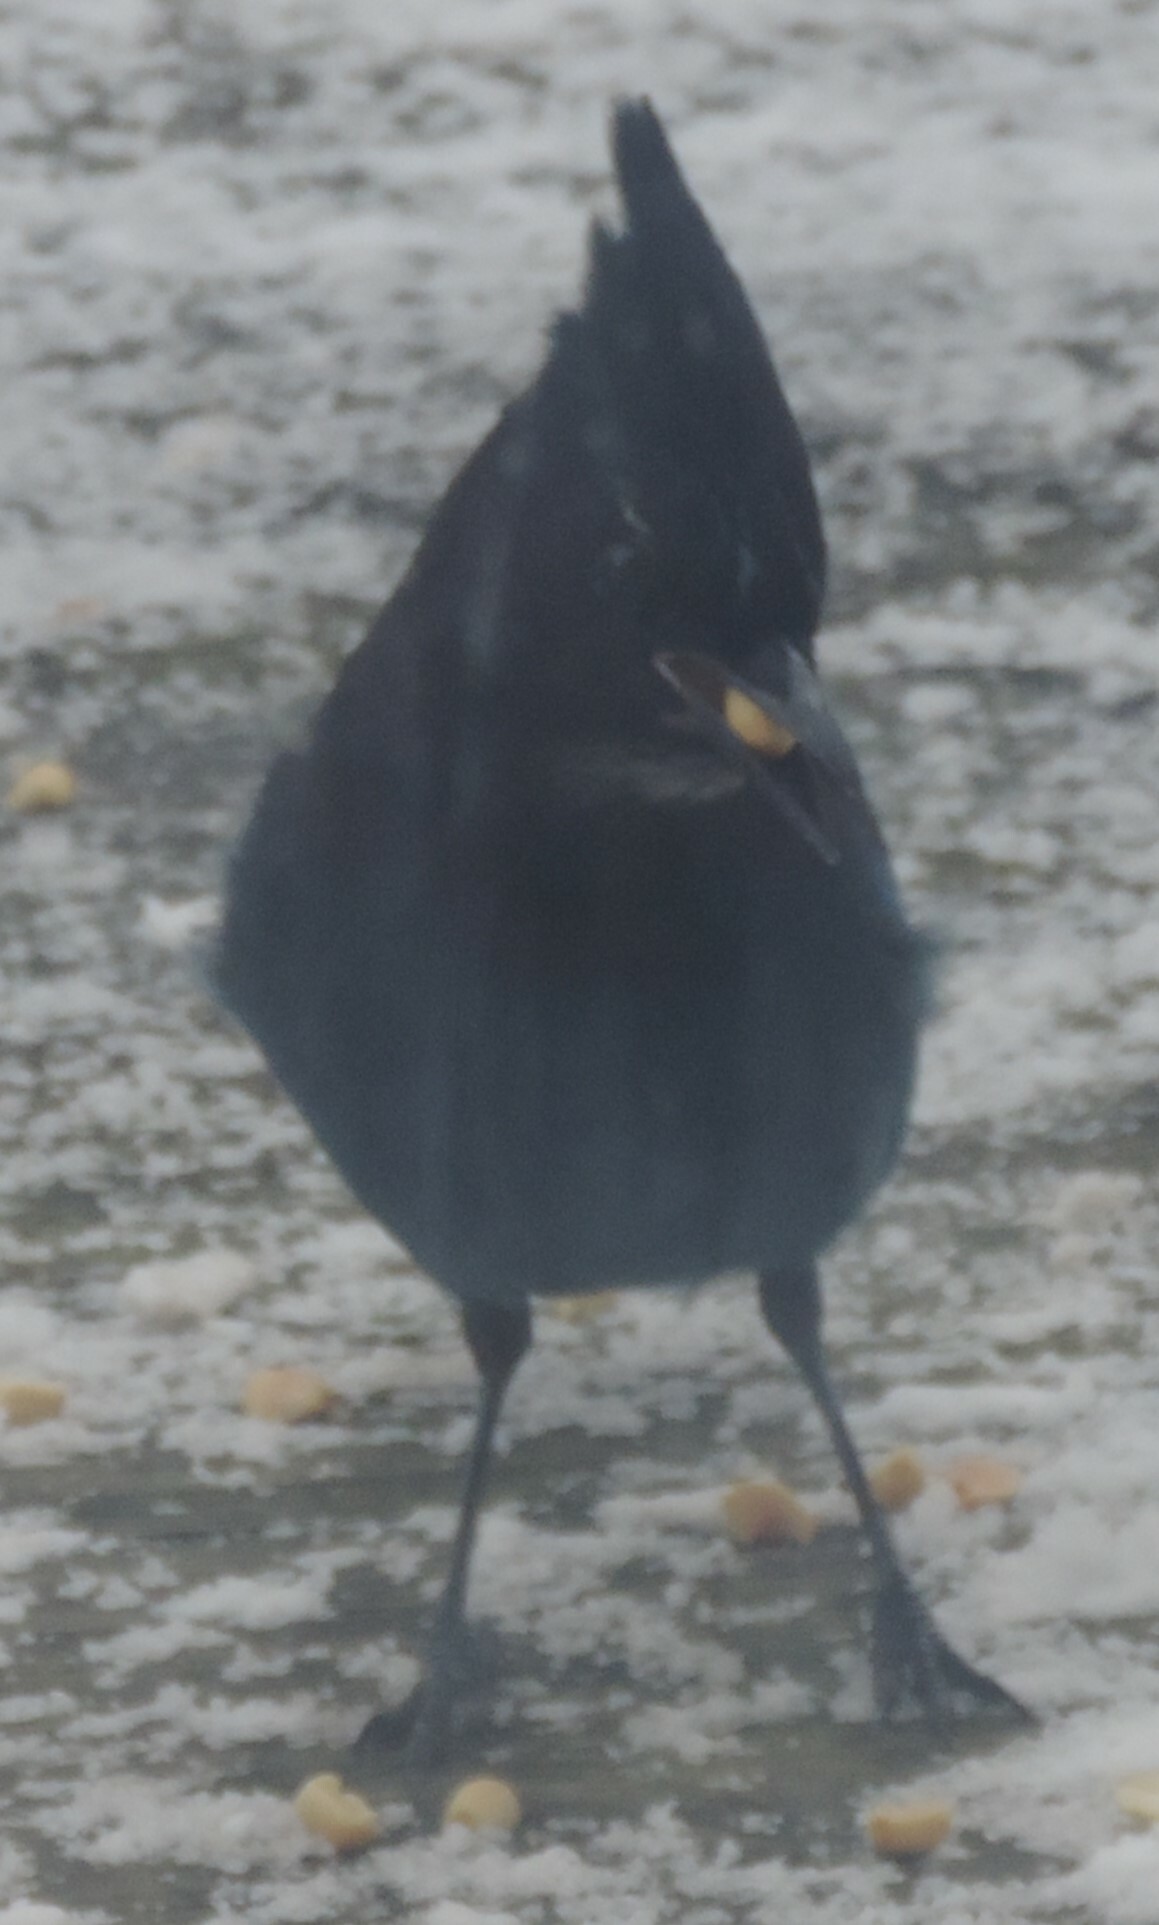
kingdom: Animalia
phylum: Chordata
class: Aves
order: Passeriformes
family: Corvidae
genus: Cyanocitta
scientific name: Cyanocitta stelleri
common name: Steller's jay
